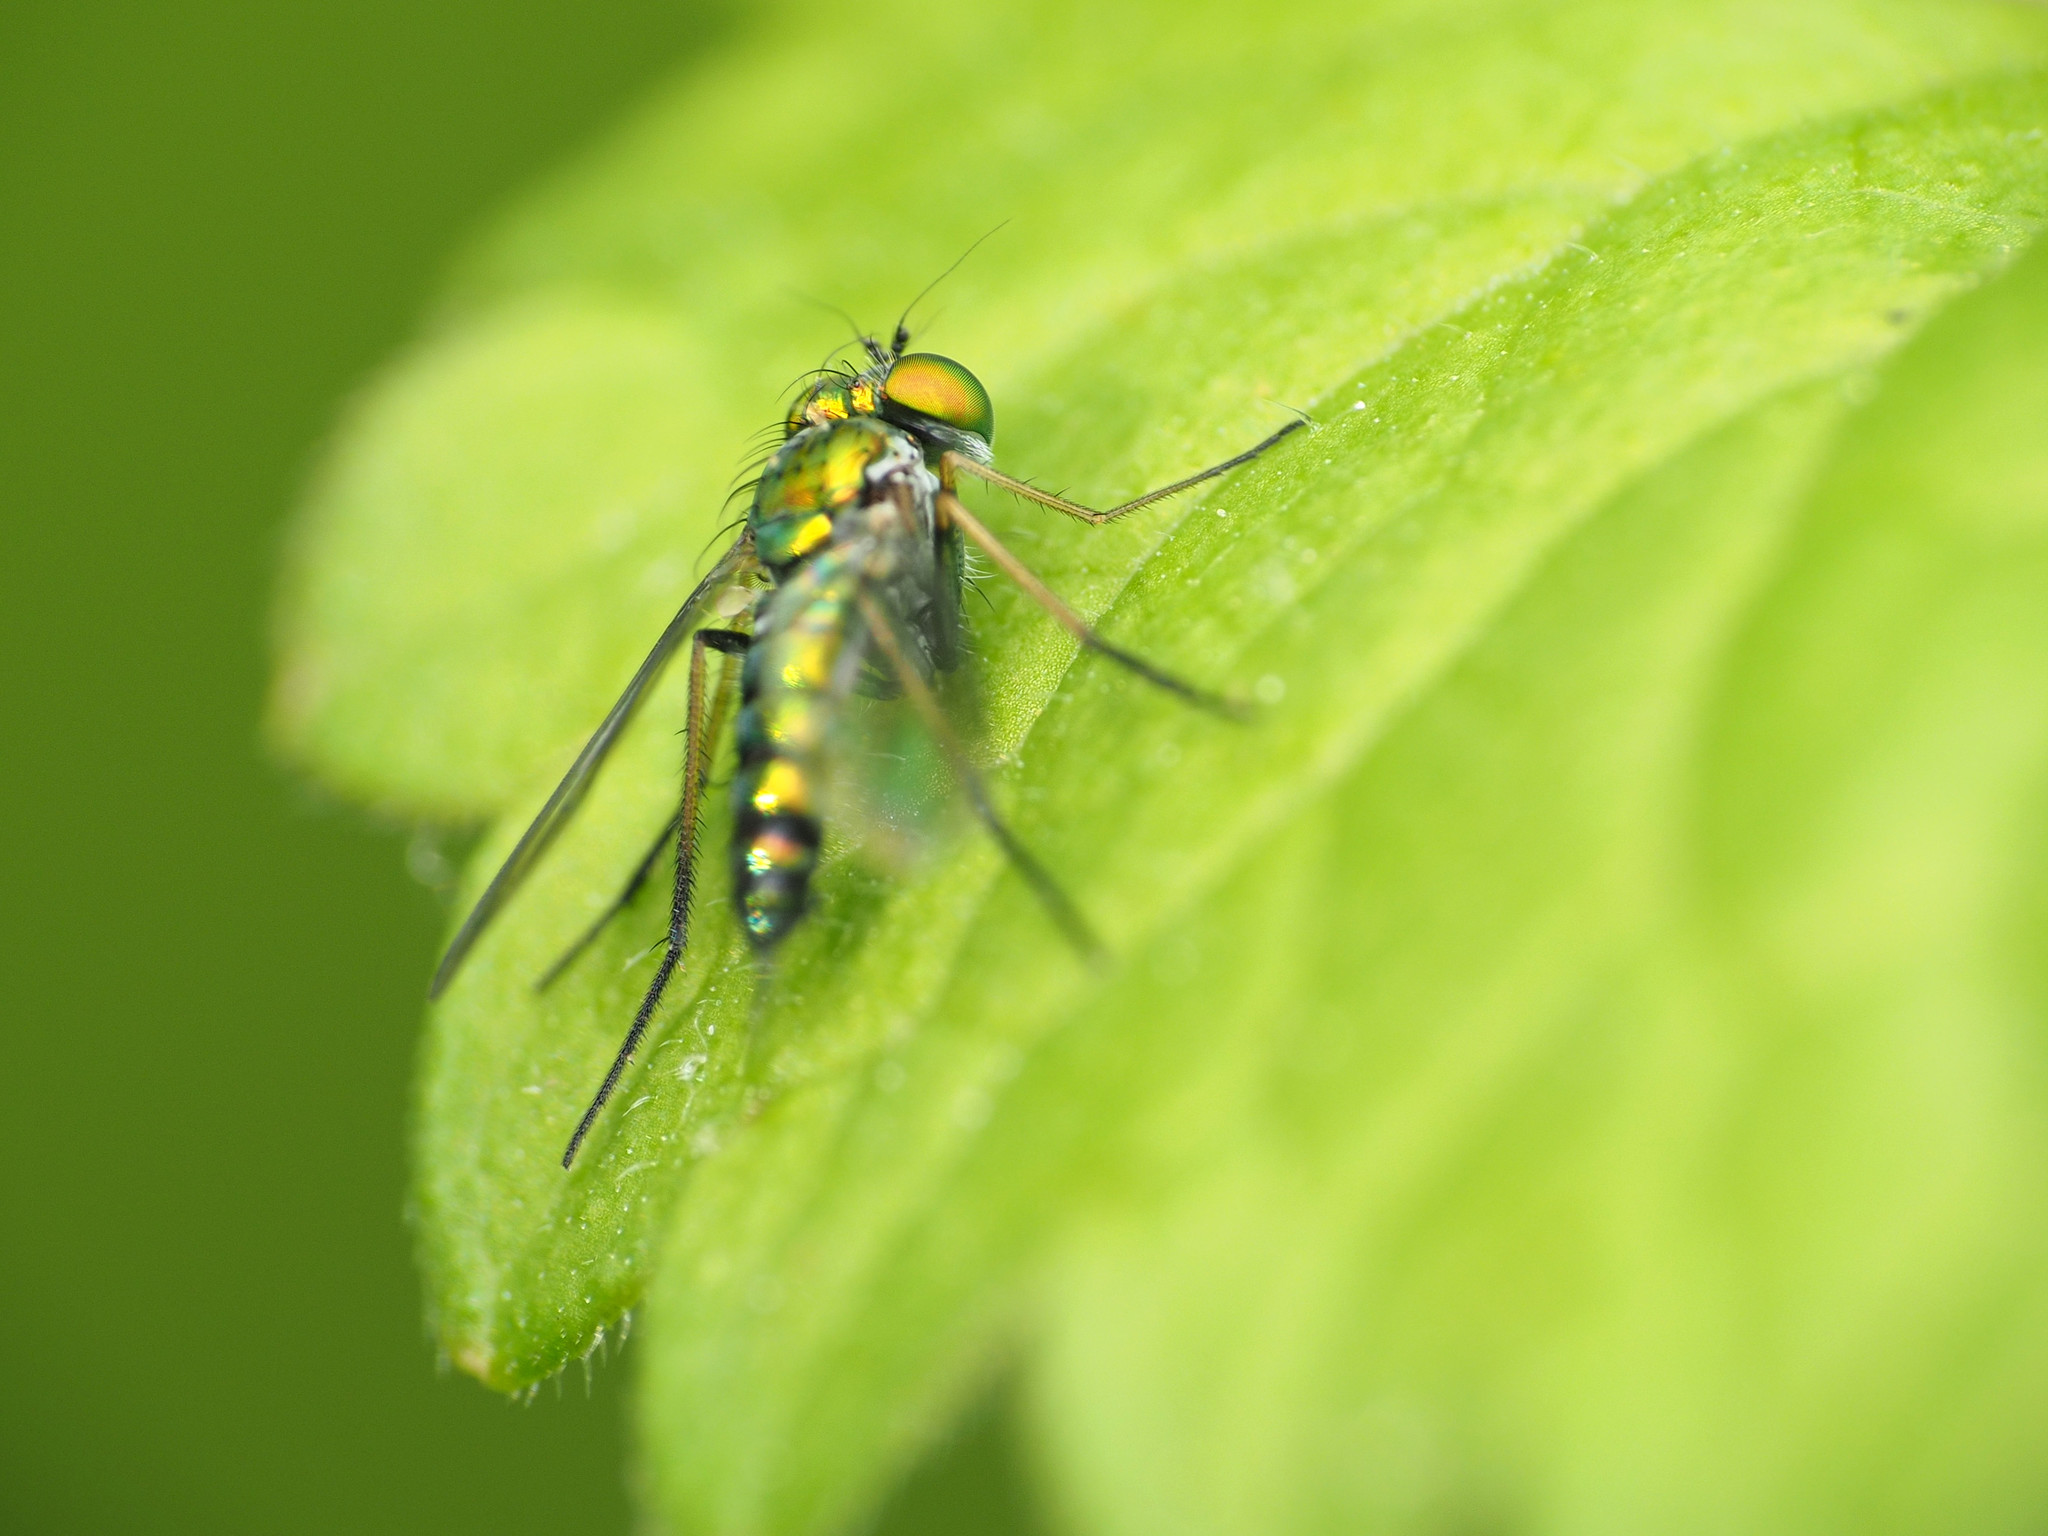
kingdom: Animalia
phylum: Arthropoda
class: Insecta
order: Diptera
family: Dolichopodidae
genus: Condylostylus
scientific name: Condylostylus caudatus
